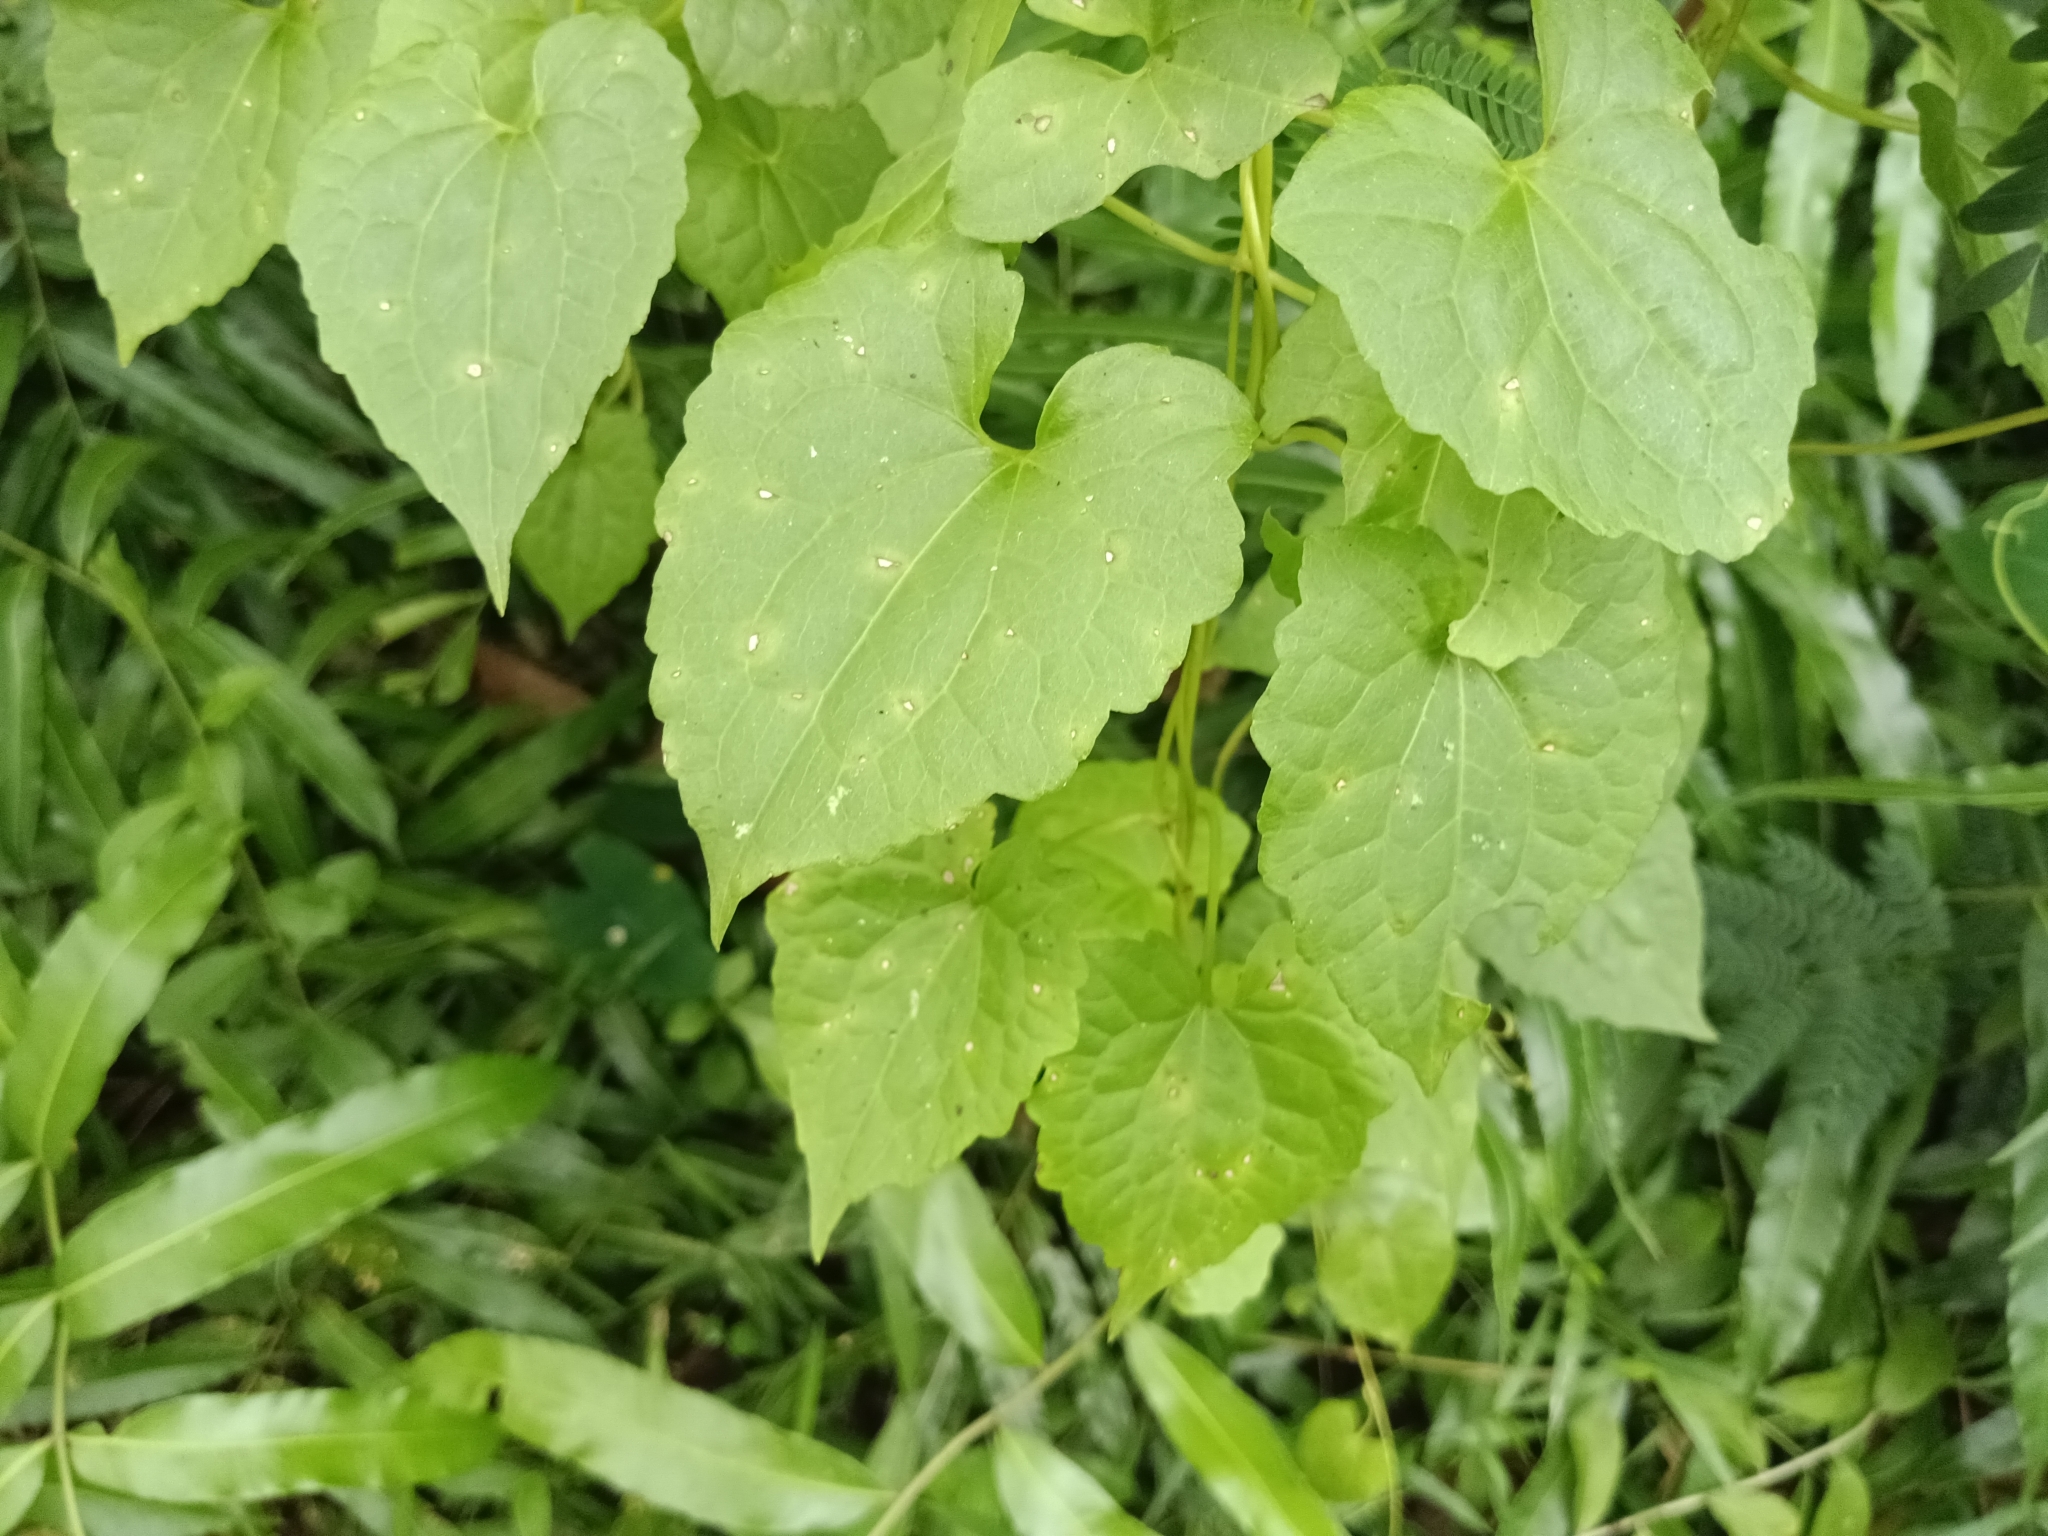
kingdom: Plantae
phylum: Tracheophyta
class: Magnoliopsida
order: Asterales
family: Asteraceae
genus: Mikania
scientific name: Mikania micrantha
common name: Mile-a-minute
